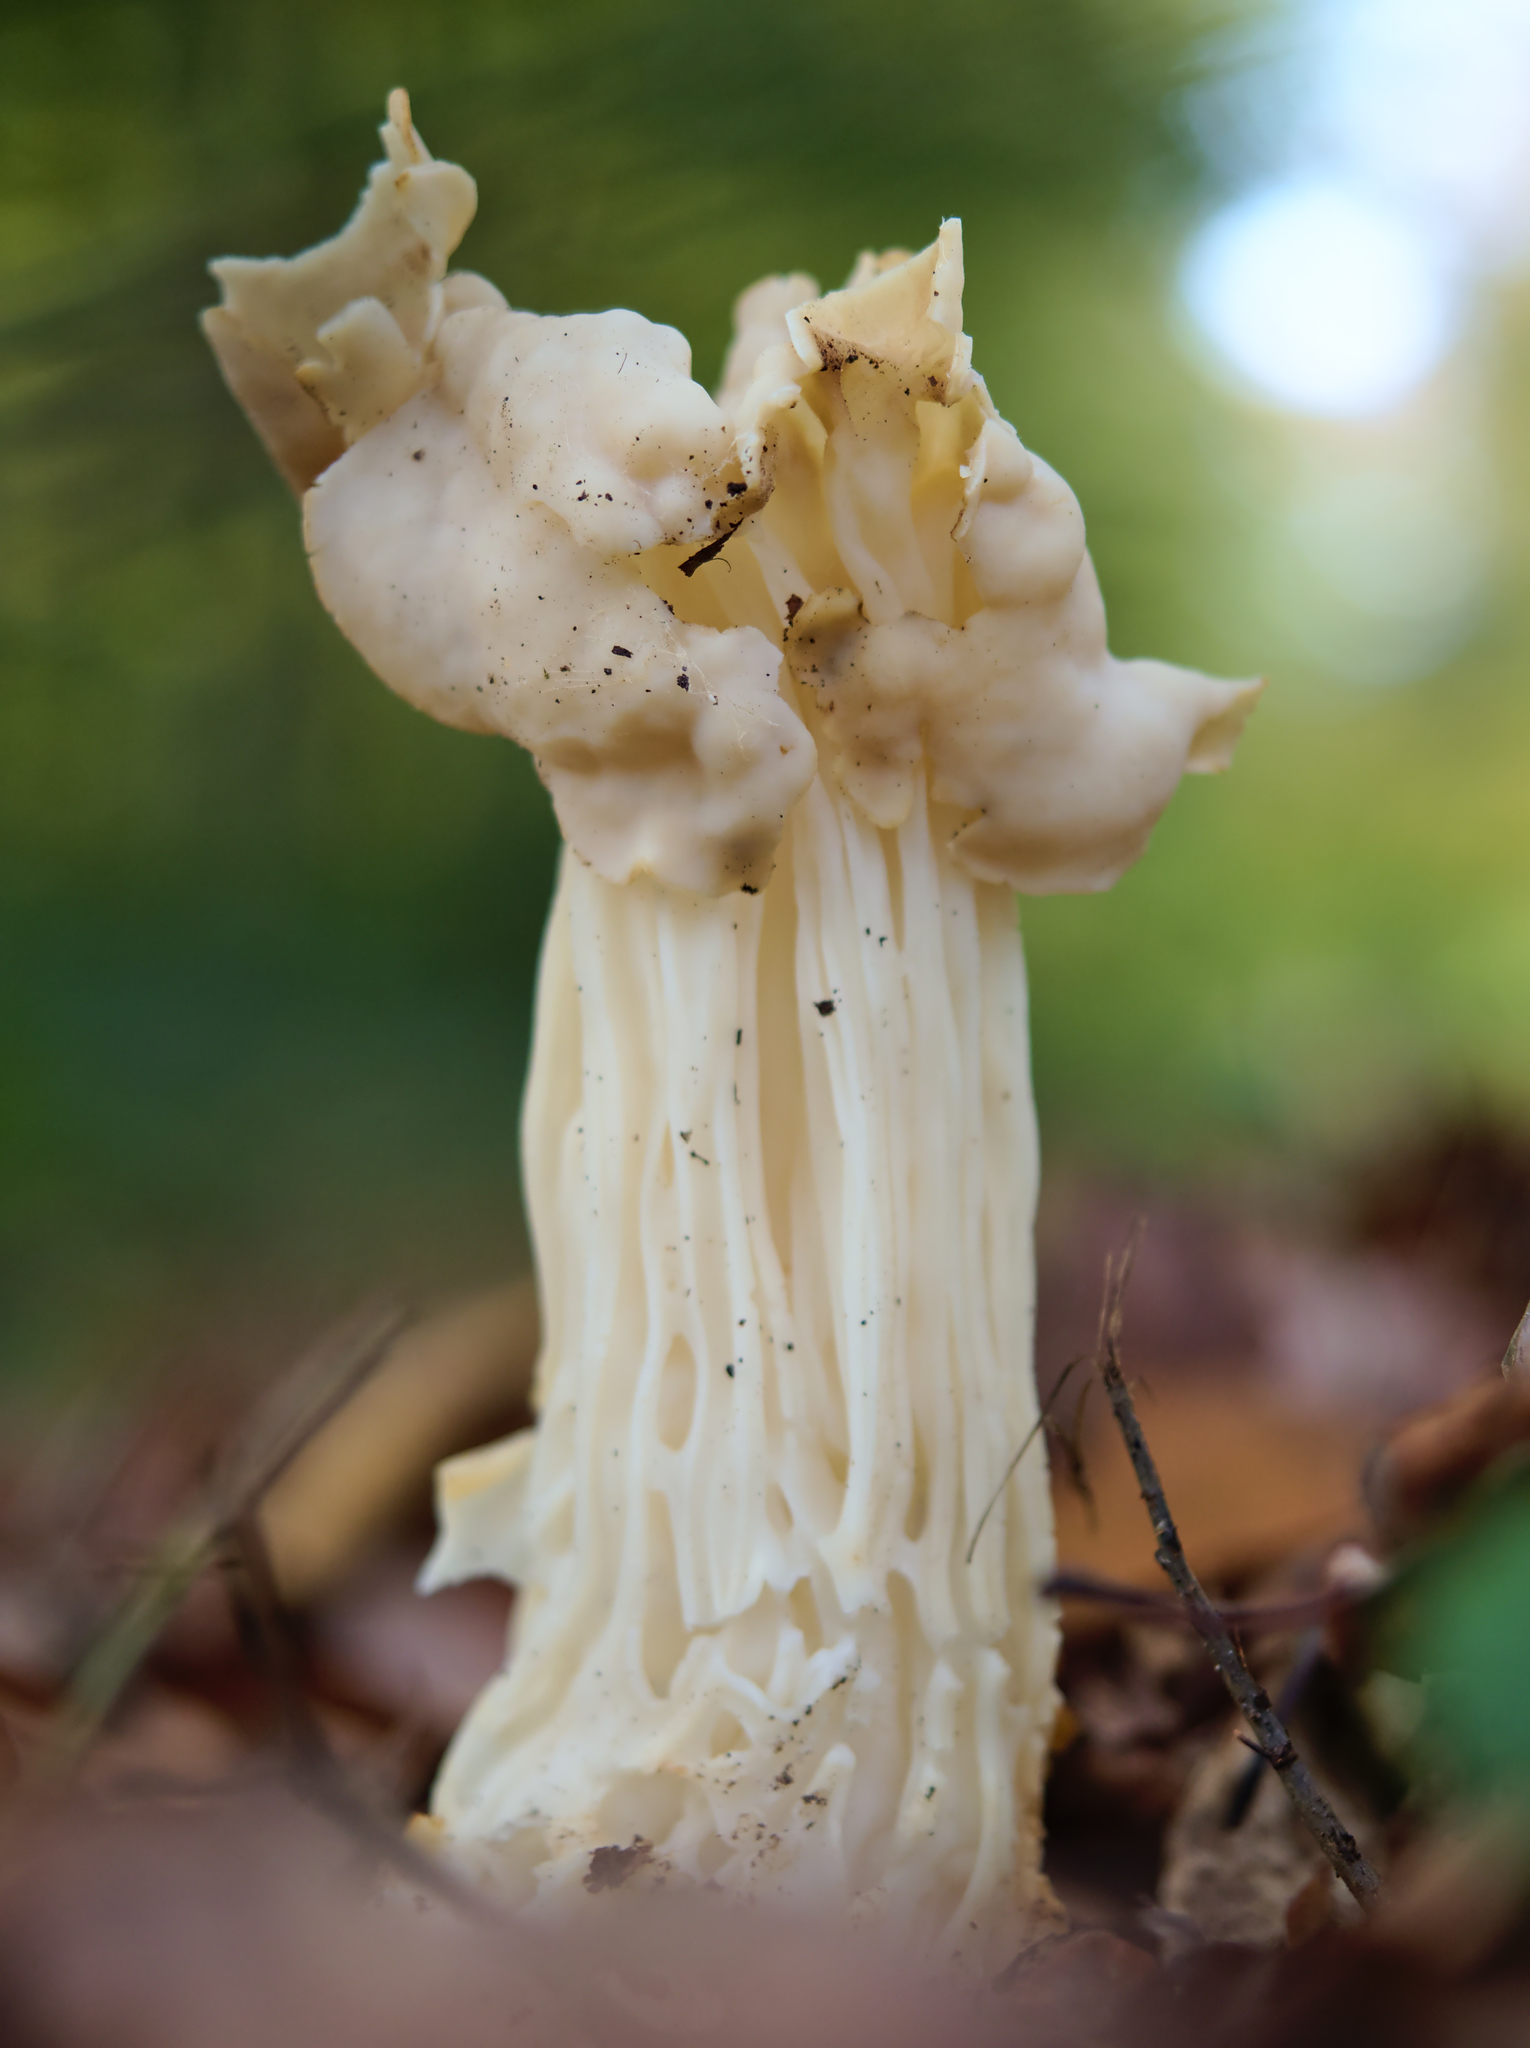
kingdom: Fungi
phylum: Ascomycota
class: Pezizomycetes
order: Pezizales
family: Helvellaceae
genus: Helvella
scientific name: Helvella crispa
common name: White saddle
